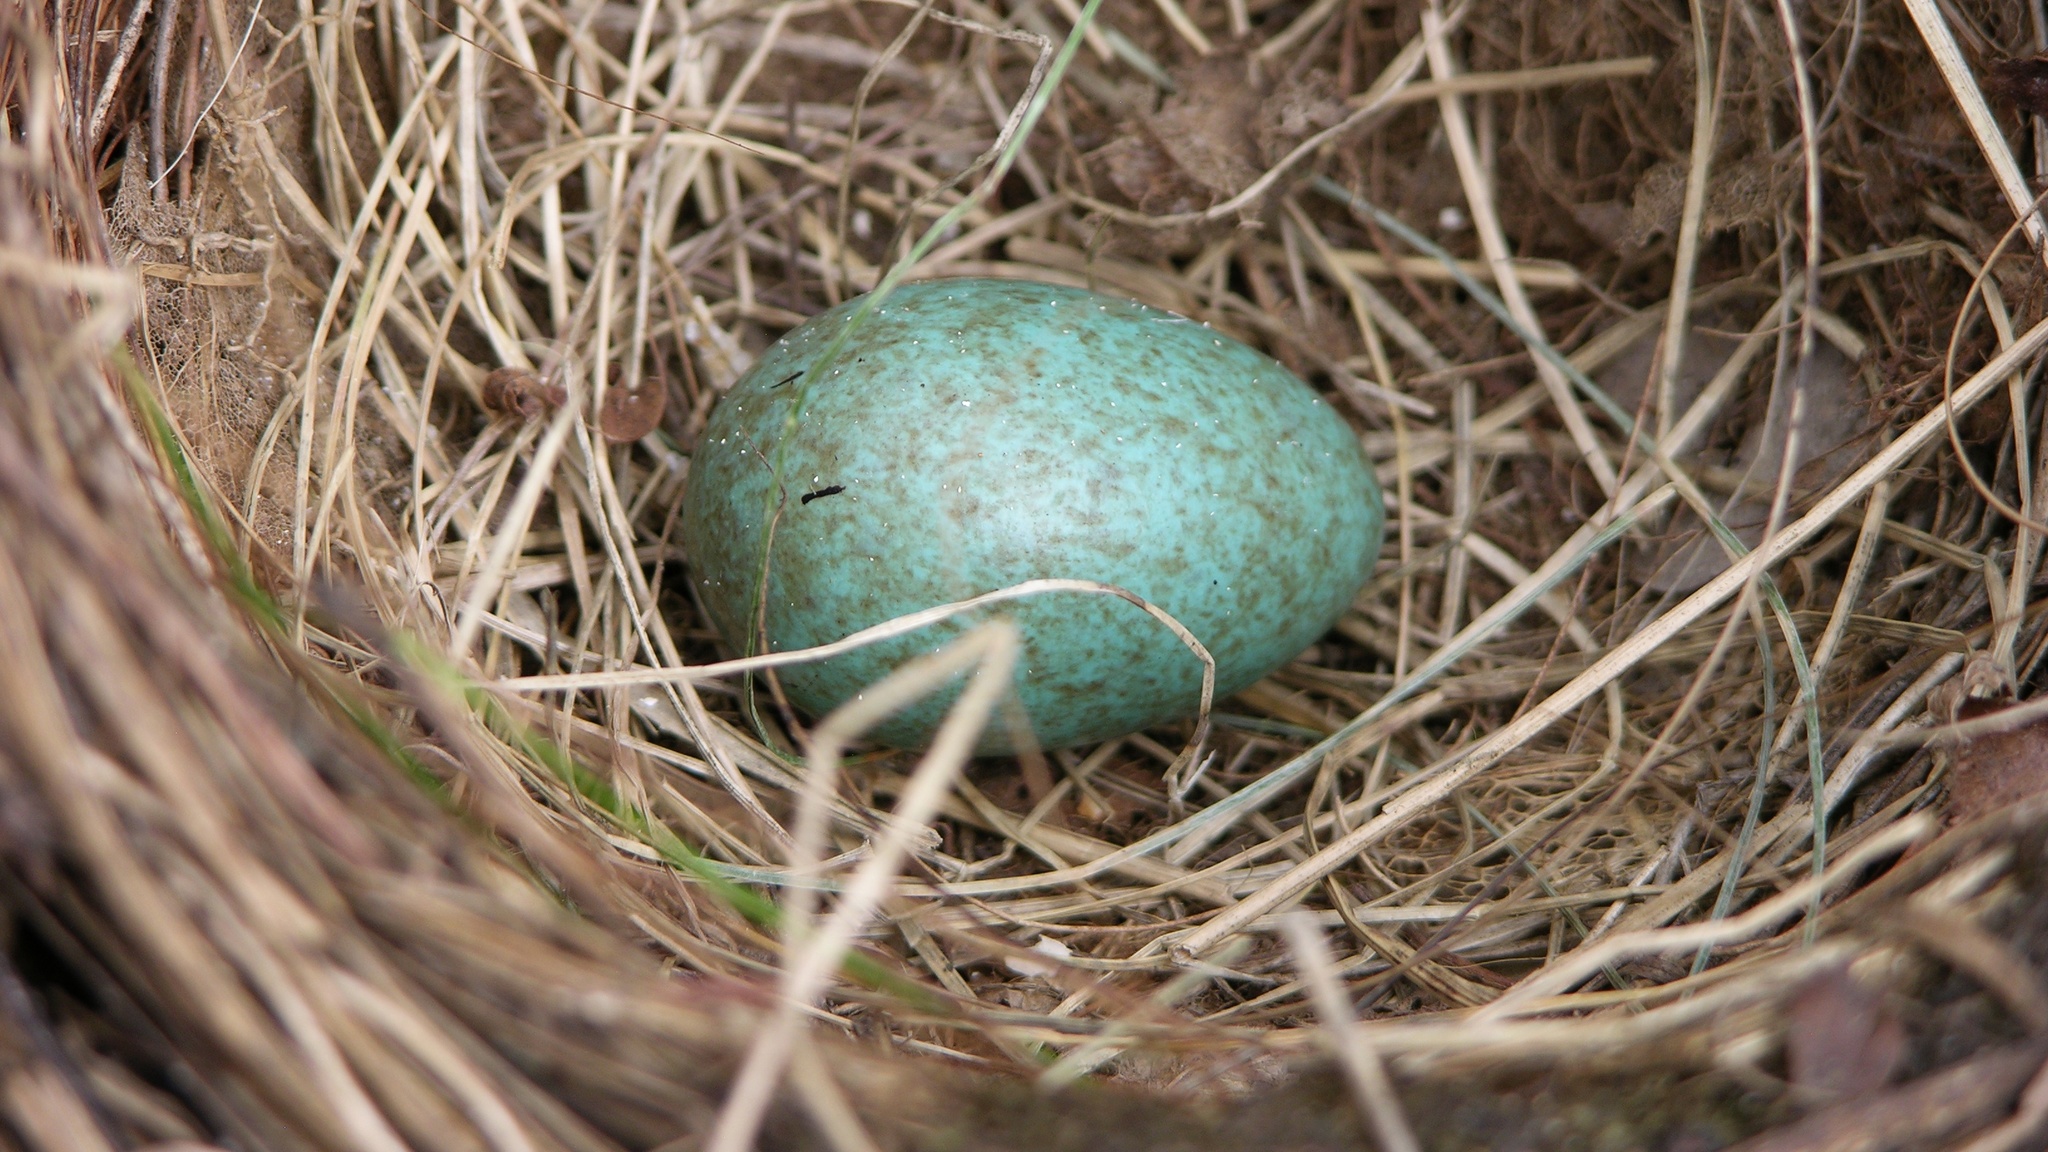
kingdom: Animalia
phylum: Chordata
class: Aves
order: Passeriformes
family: Turdidae
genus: Turdus
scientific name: Turdus merula
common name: Common blackbird
